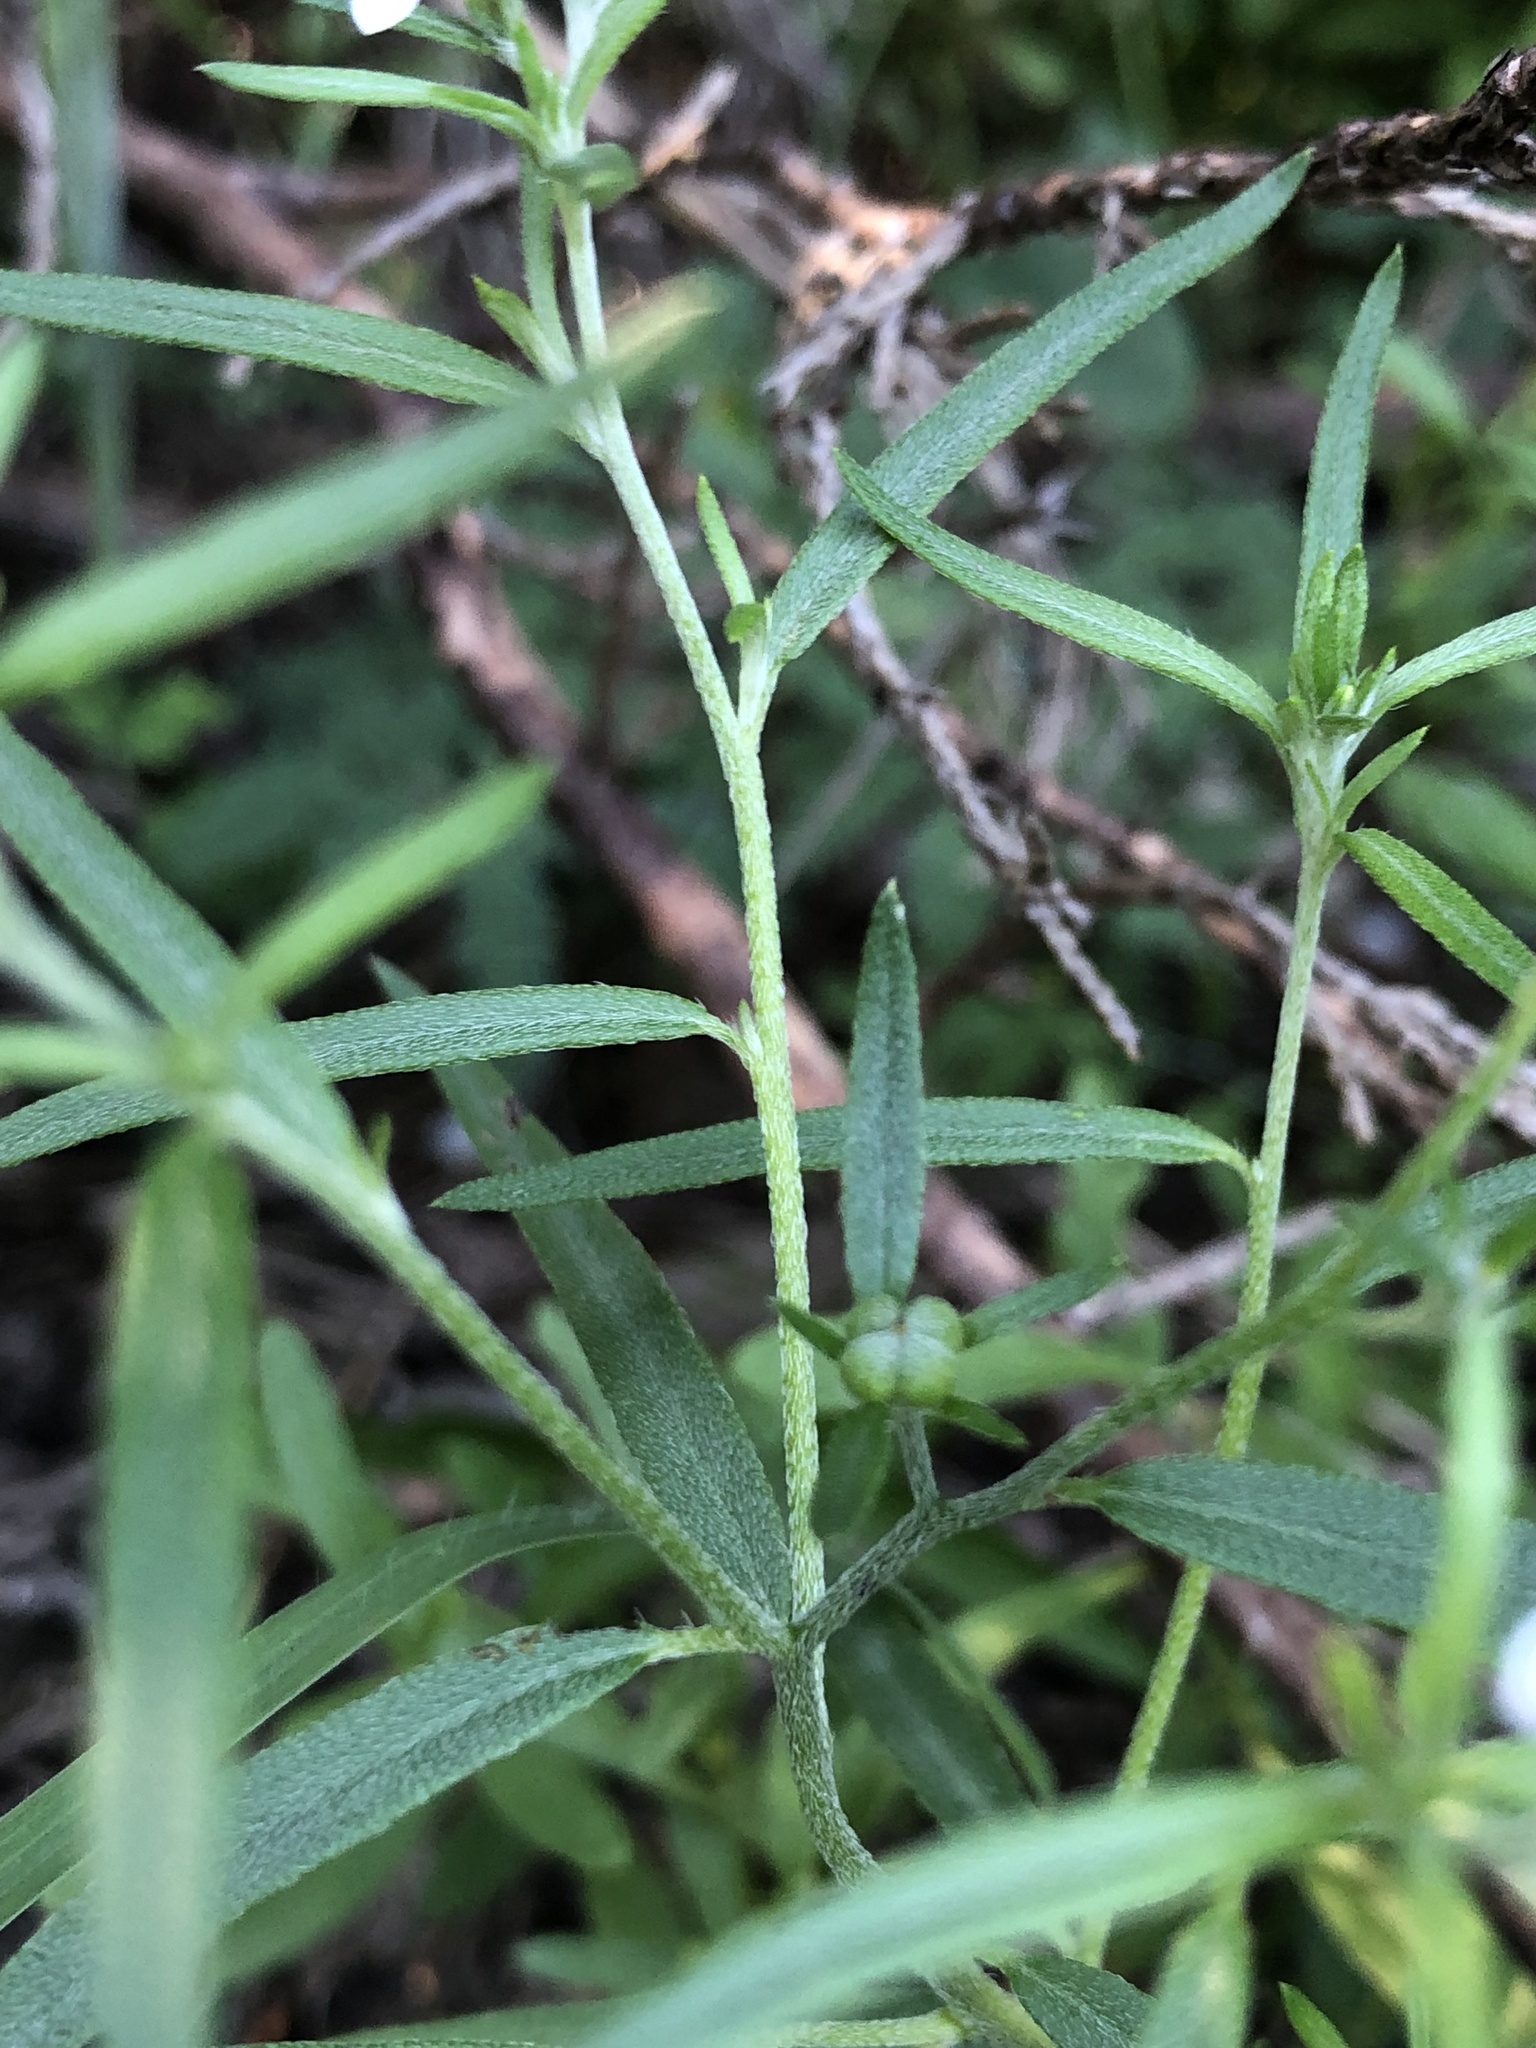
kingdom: Plantae
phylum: Tracheophyta
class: Magnoliopsida
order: Boraginales
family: Heliotropiaceae
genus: Euploca
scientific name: Euploca tenella
